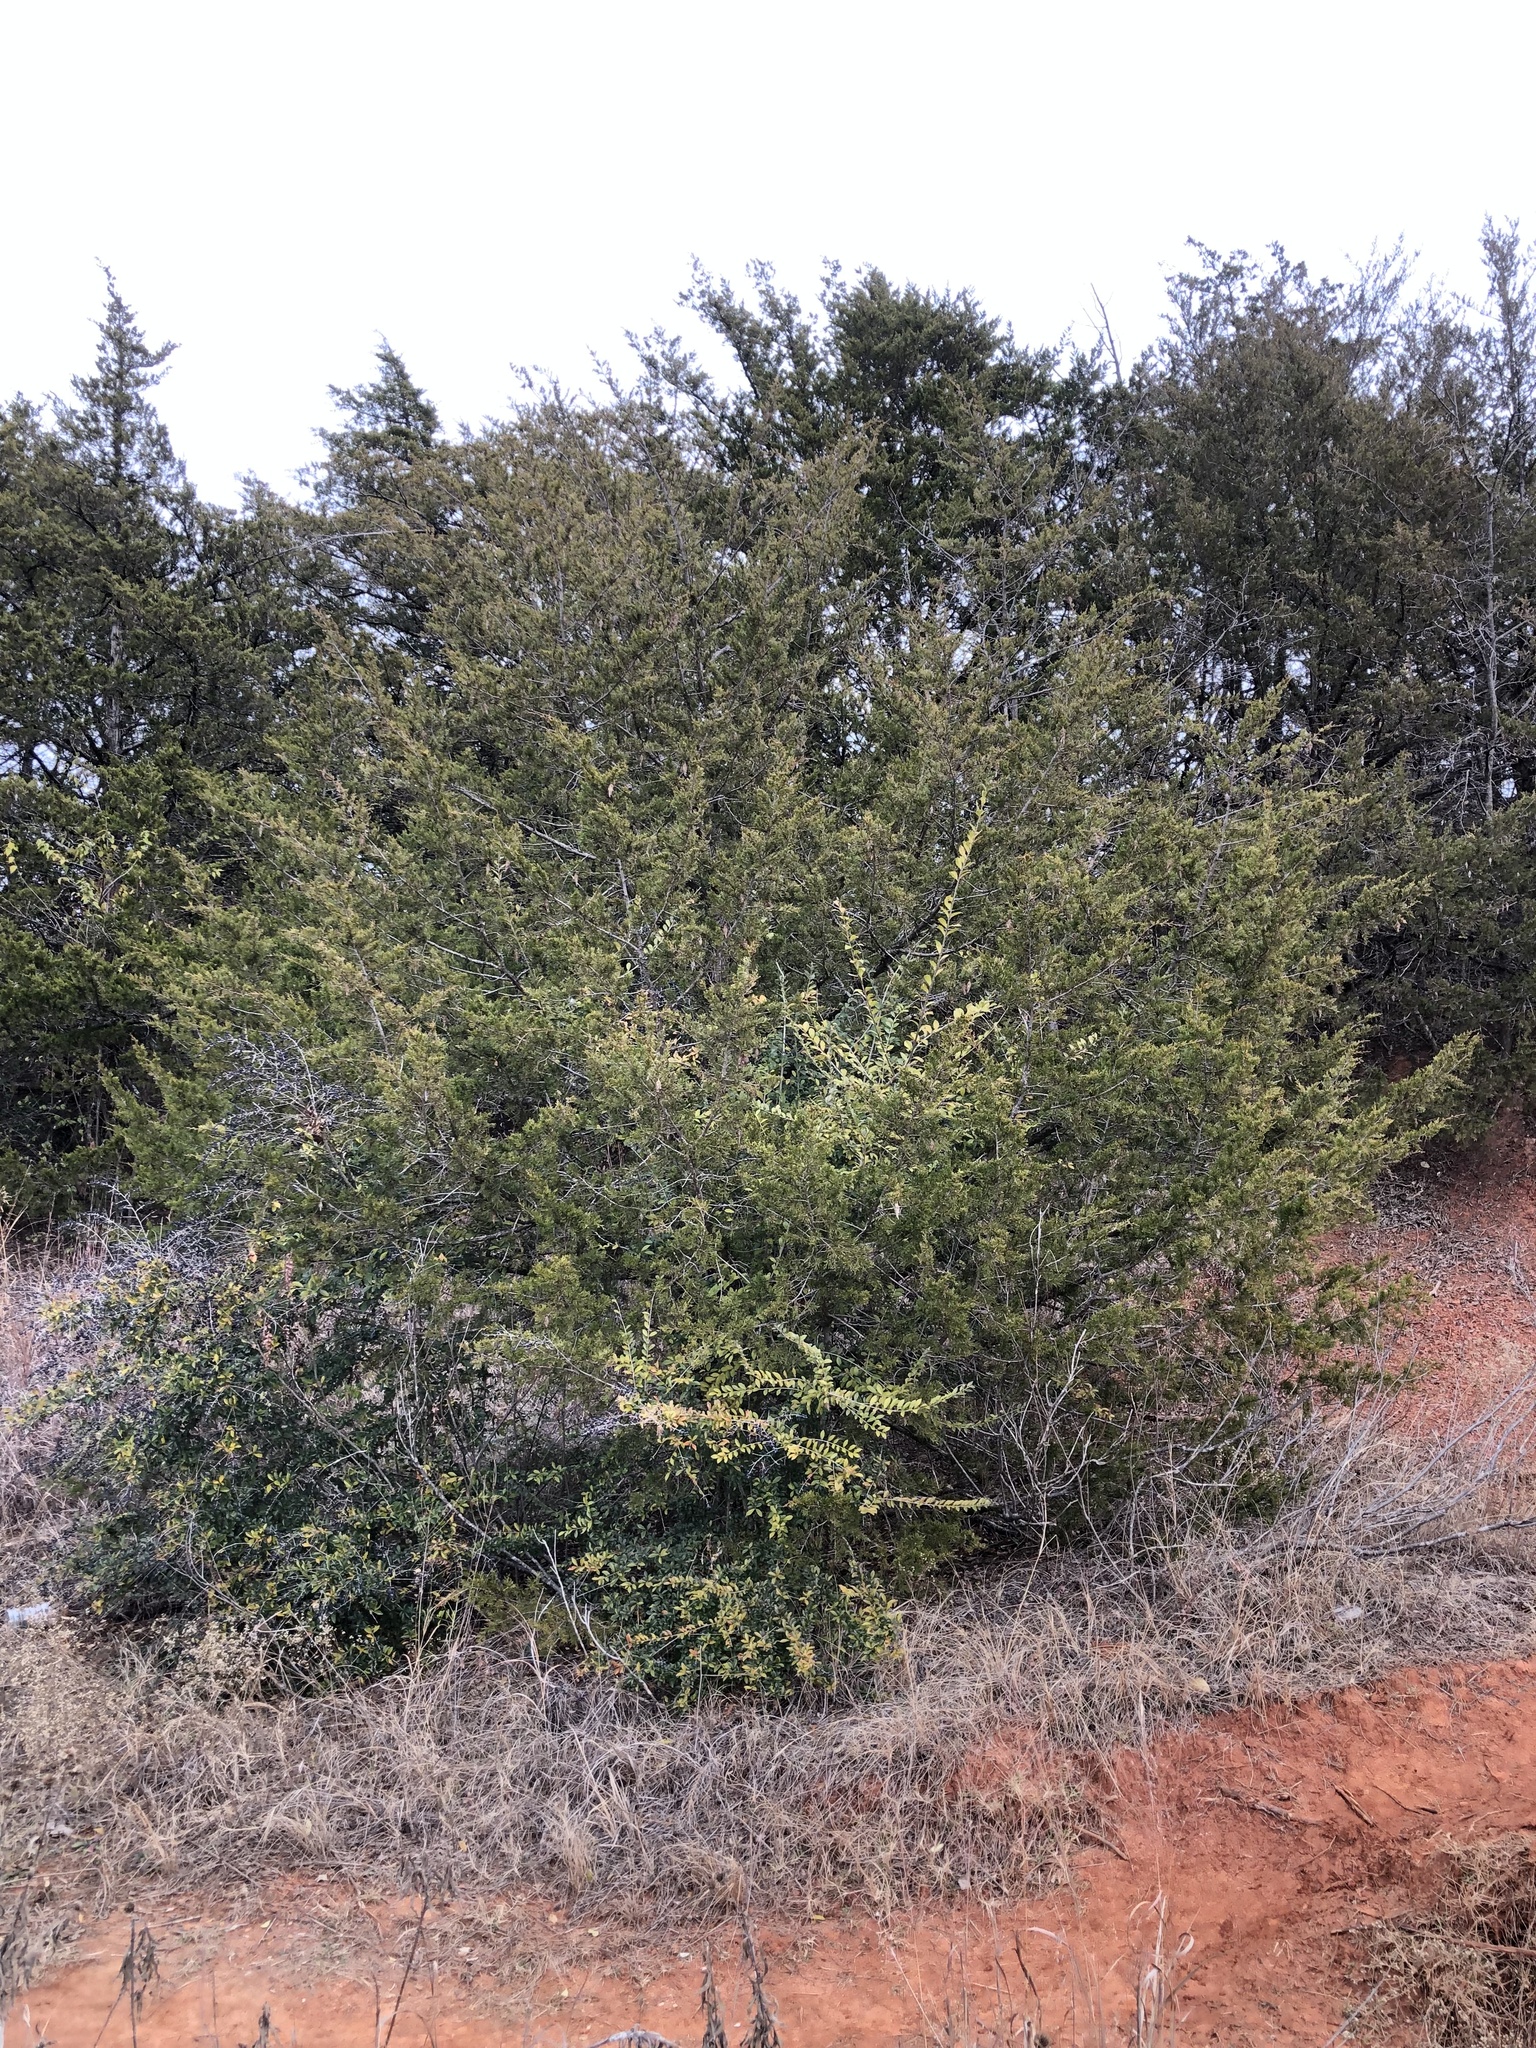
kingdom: Plantae
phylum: Tracheophyta
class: Pinopsida
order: Pinales
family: Cupressaceae
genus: Juniperus
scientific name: Juniperus virginiana
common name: Red juniper
